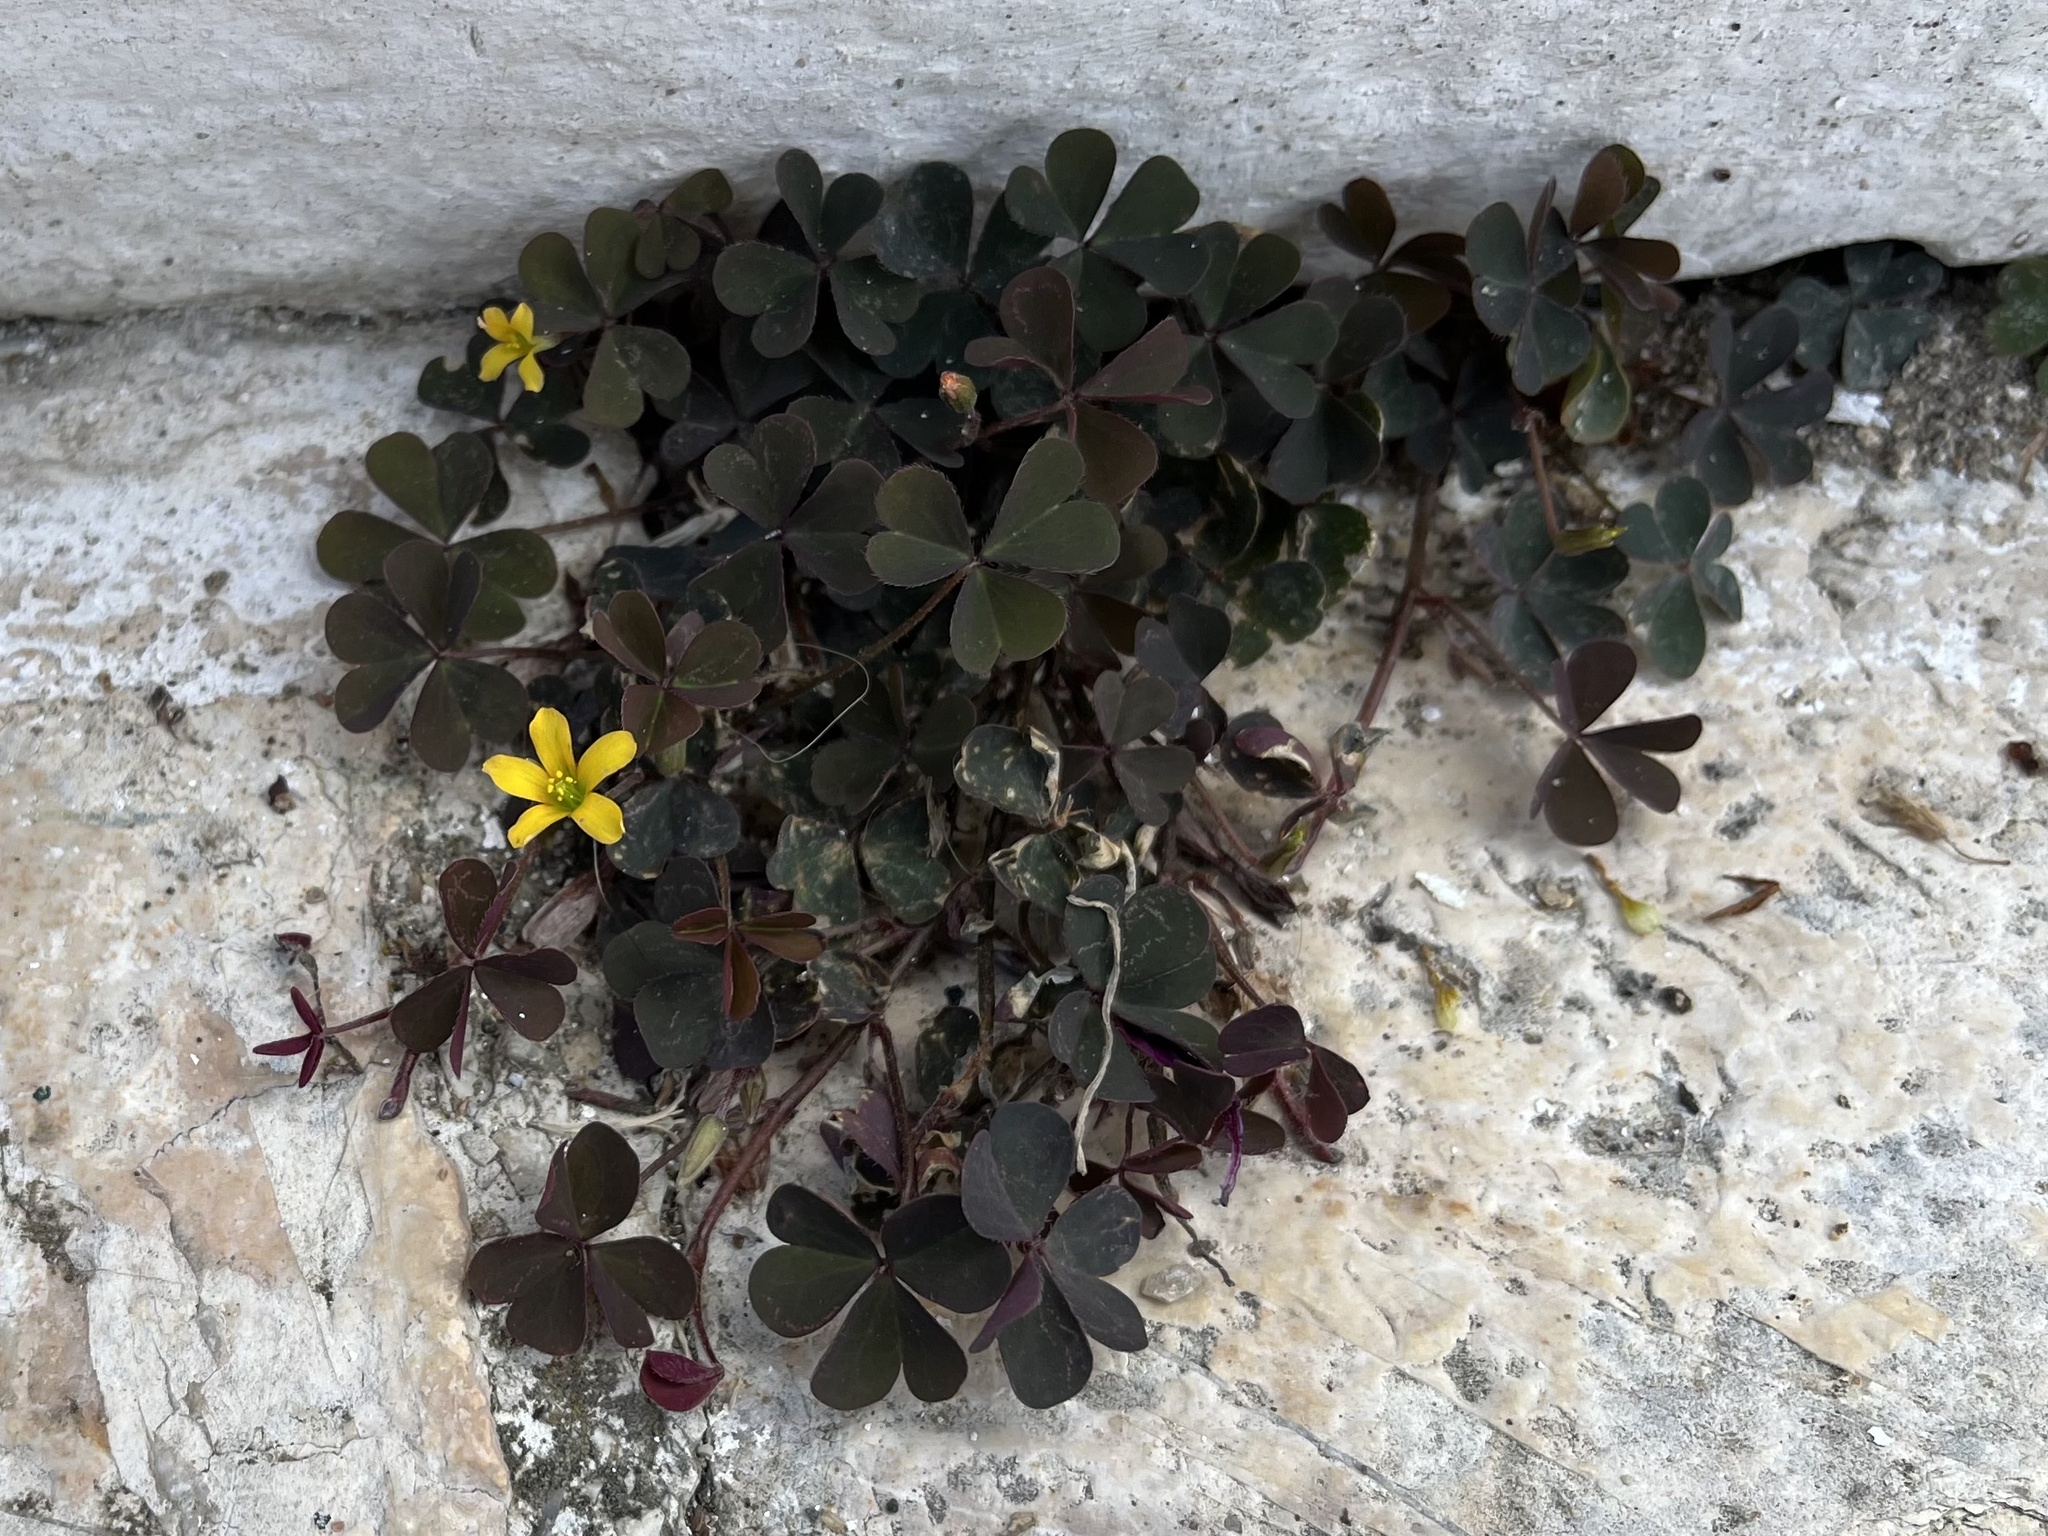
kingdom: Plantae
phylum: Tracheophyta
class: Magnoliopsida
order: Oxalidales
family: Oxalidaceae
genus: Oxalis
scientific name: Oxalis corniculata
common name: Procumbent yellow-sorrel
